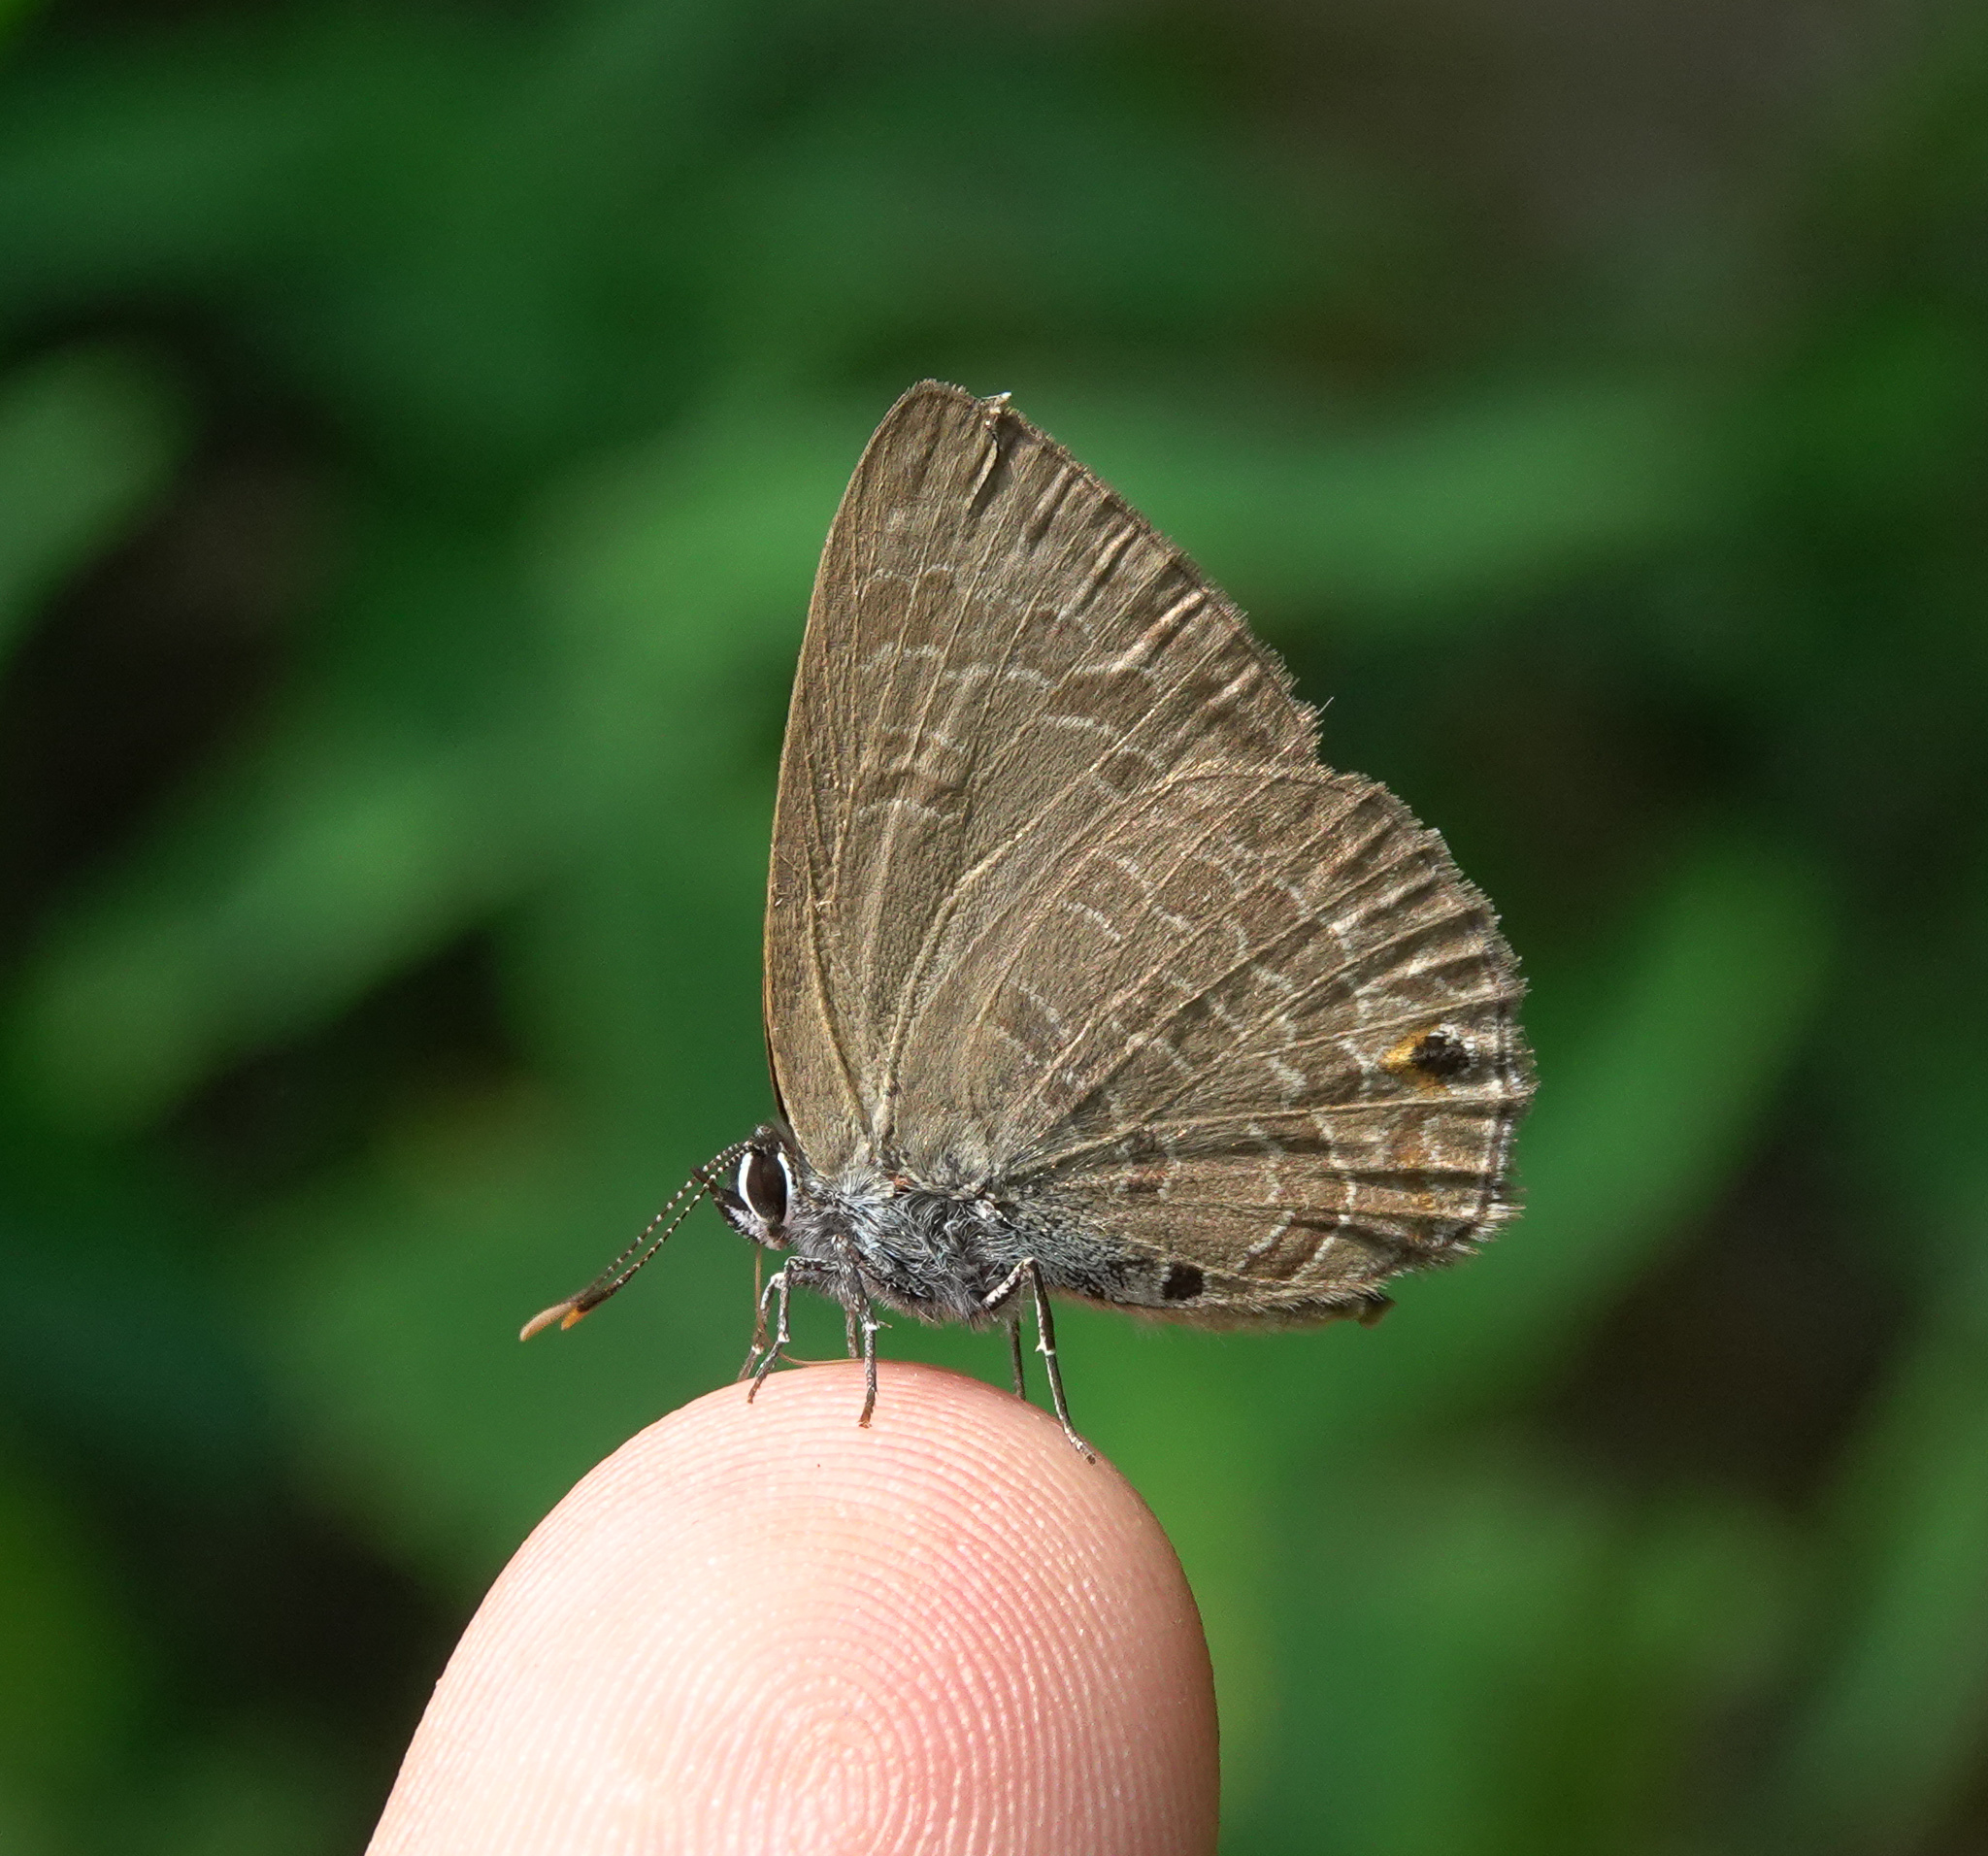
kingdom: Animalia
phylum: Arthropoda
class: Insecta
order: Lepidoptera
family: Lycaenidae
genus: Anthene
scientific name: Anthene emolus
